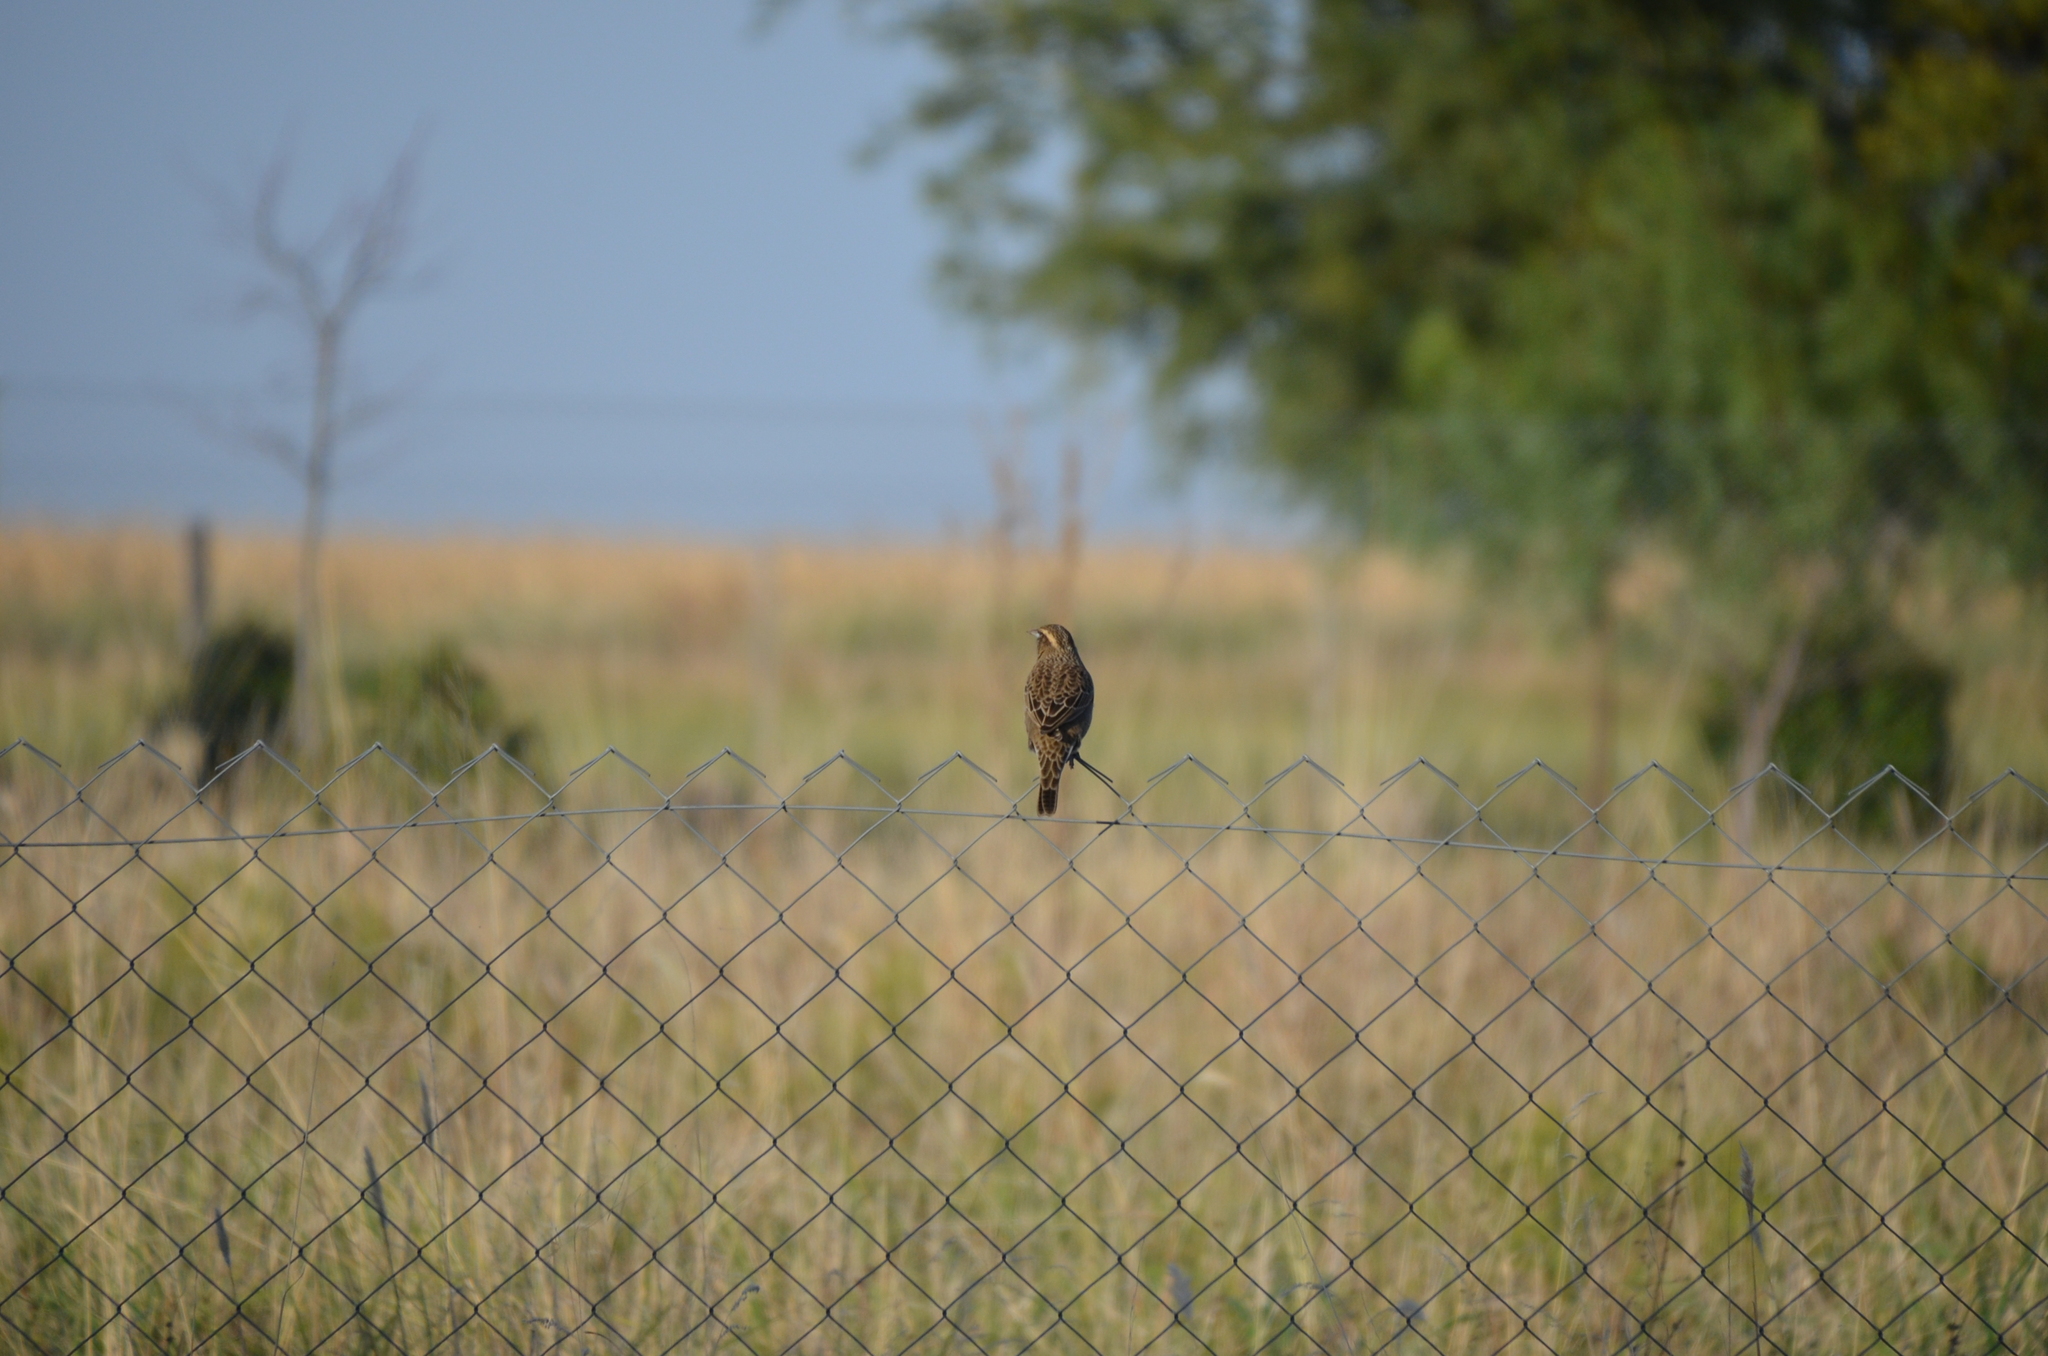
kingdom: Animalia
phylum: Chordata
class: Aves
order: Passeriformes
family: Icteridae
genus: Sturnella
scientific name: Sturnella loyca
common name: Long-tailed meadowlark
